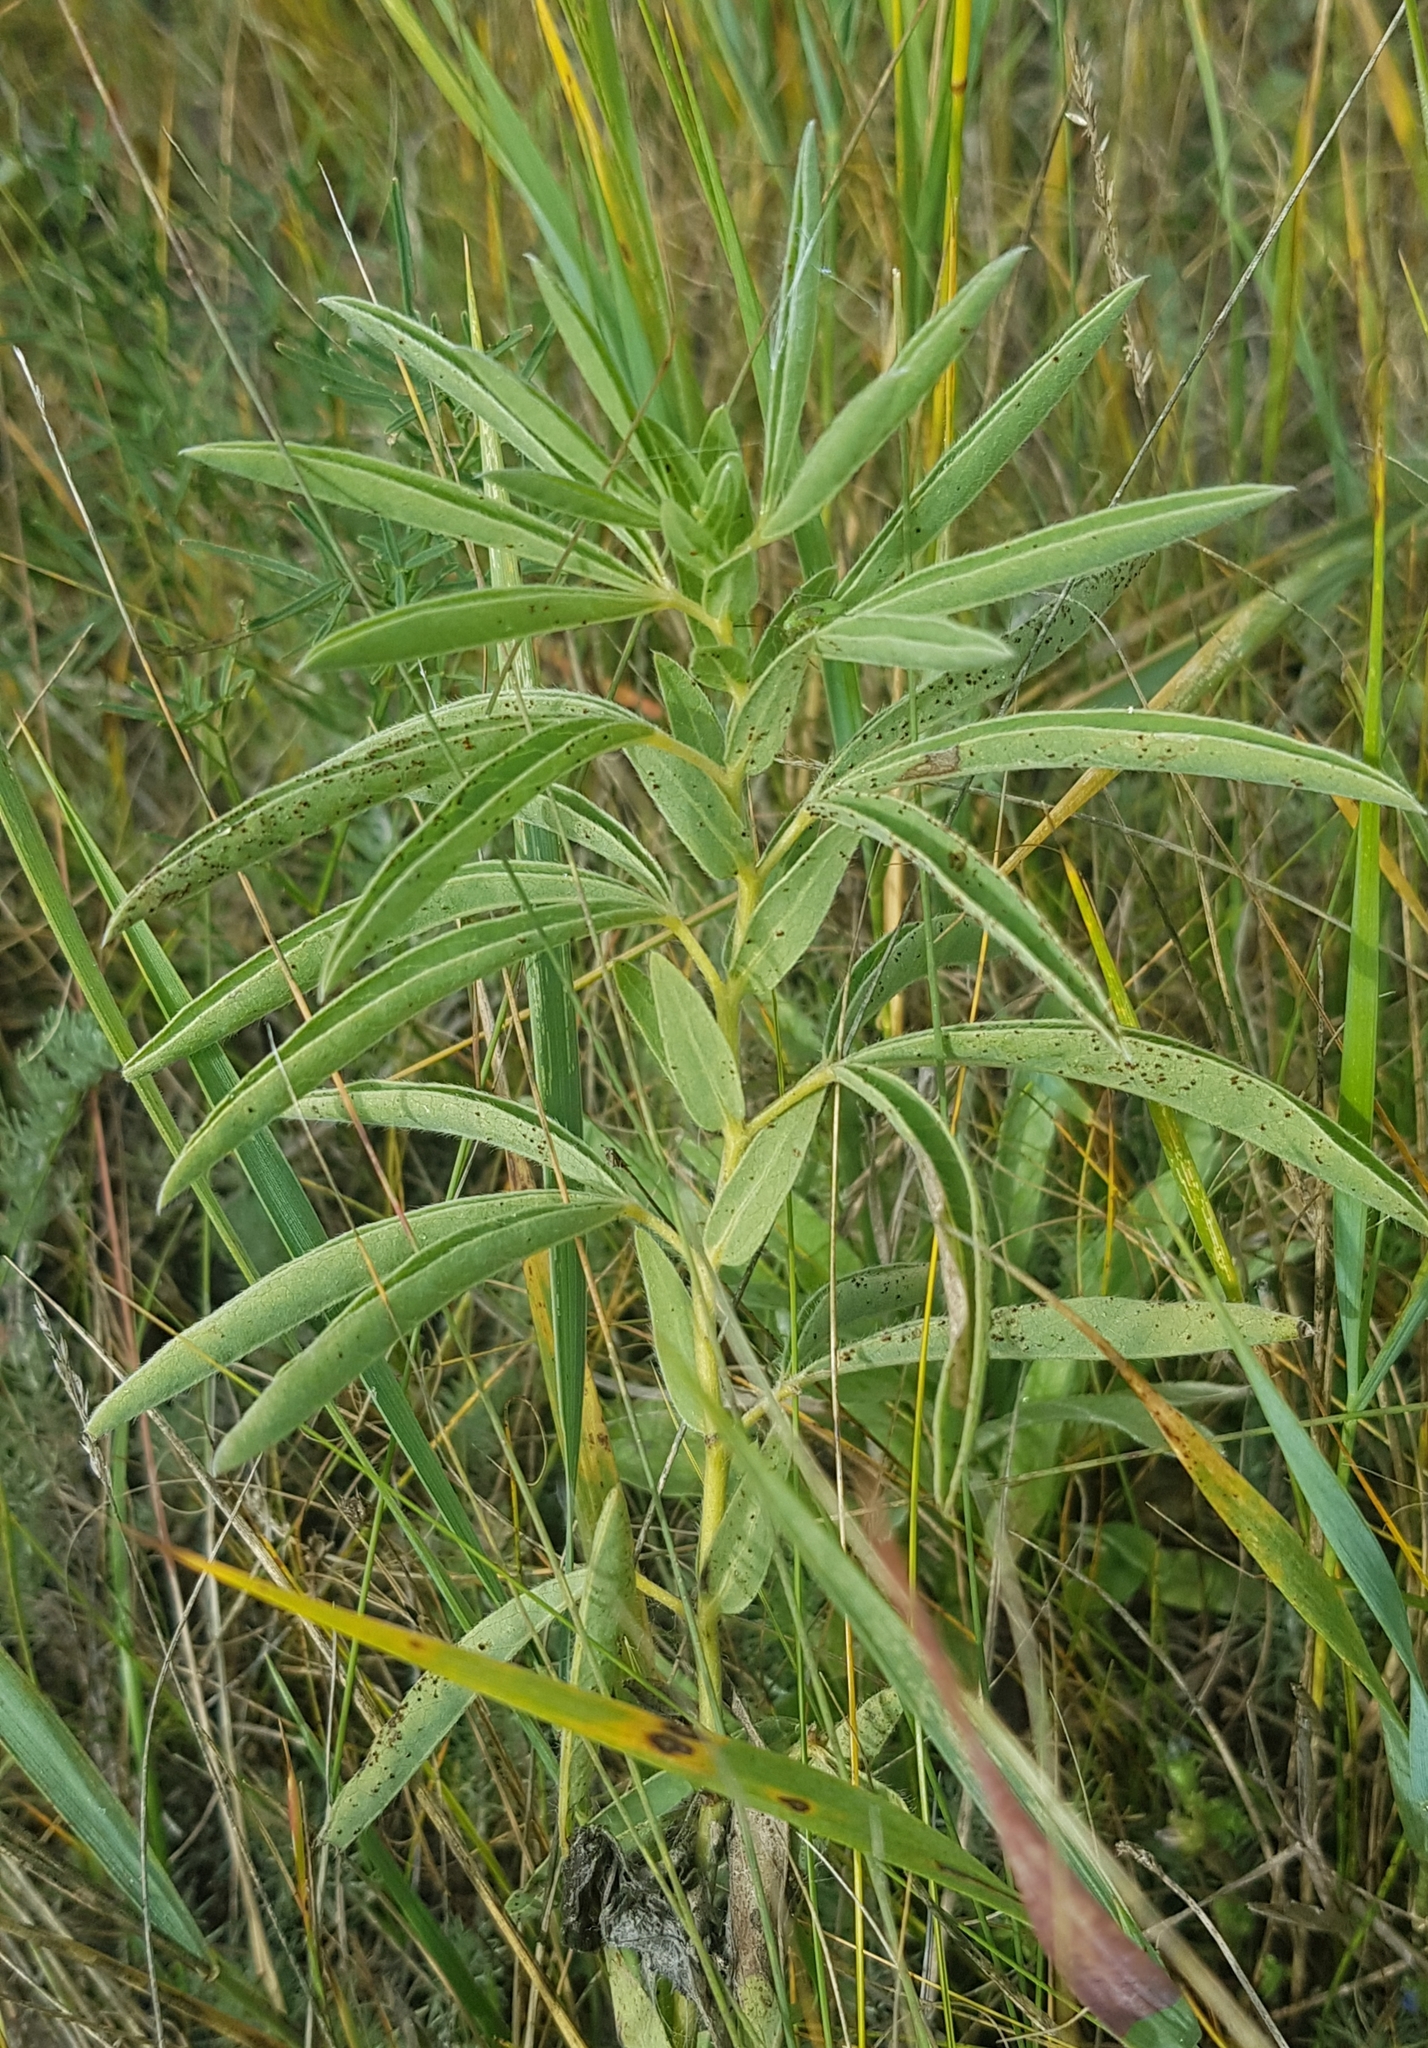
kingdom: Plantae
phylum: Tracheophyta
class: Magnoliopsida
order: Fabales
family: Fabaceae
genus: Thermopsis
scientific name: Thermopsis dahurica
